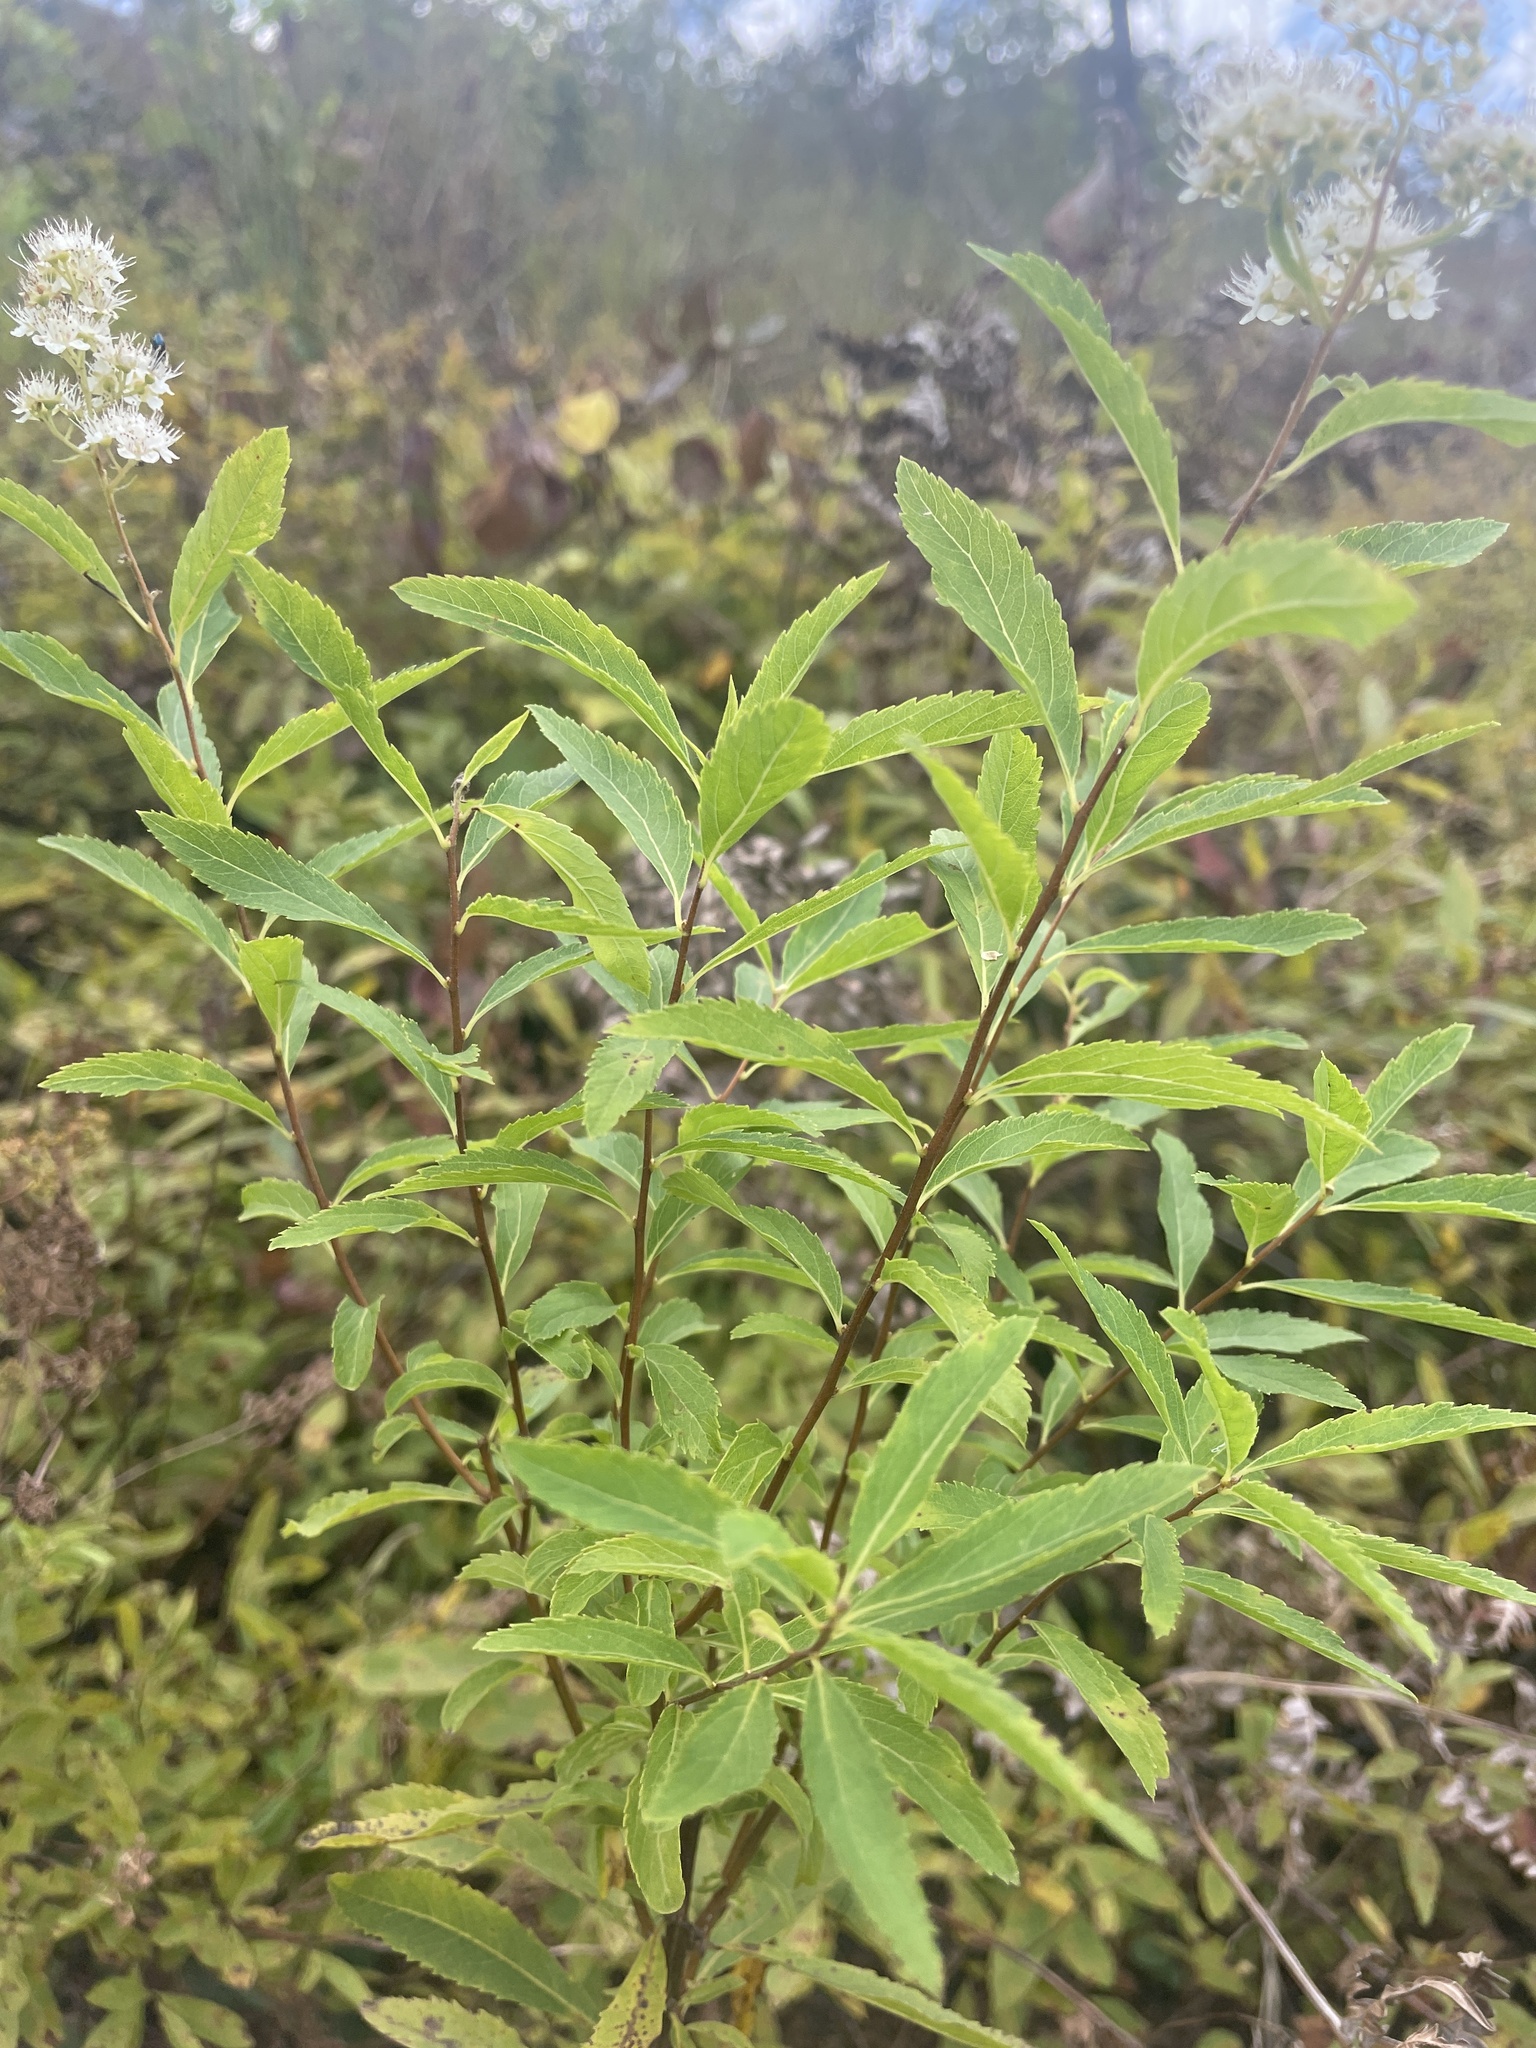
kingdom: Plantae
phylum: Tracheophyta
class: Magnoliopsida
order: Rosales
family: Rosaceae
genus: Spiraea
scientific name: Spiraea alba
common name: Pale bridewort
